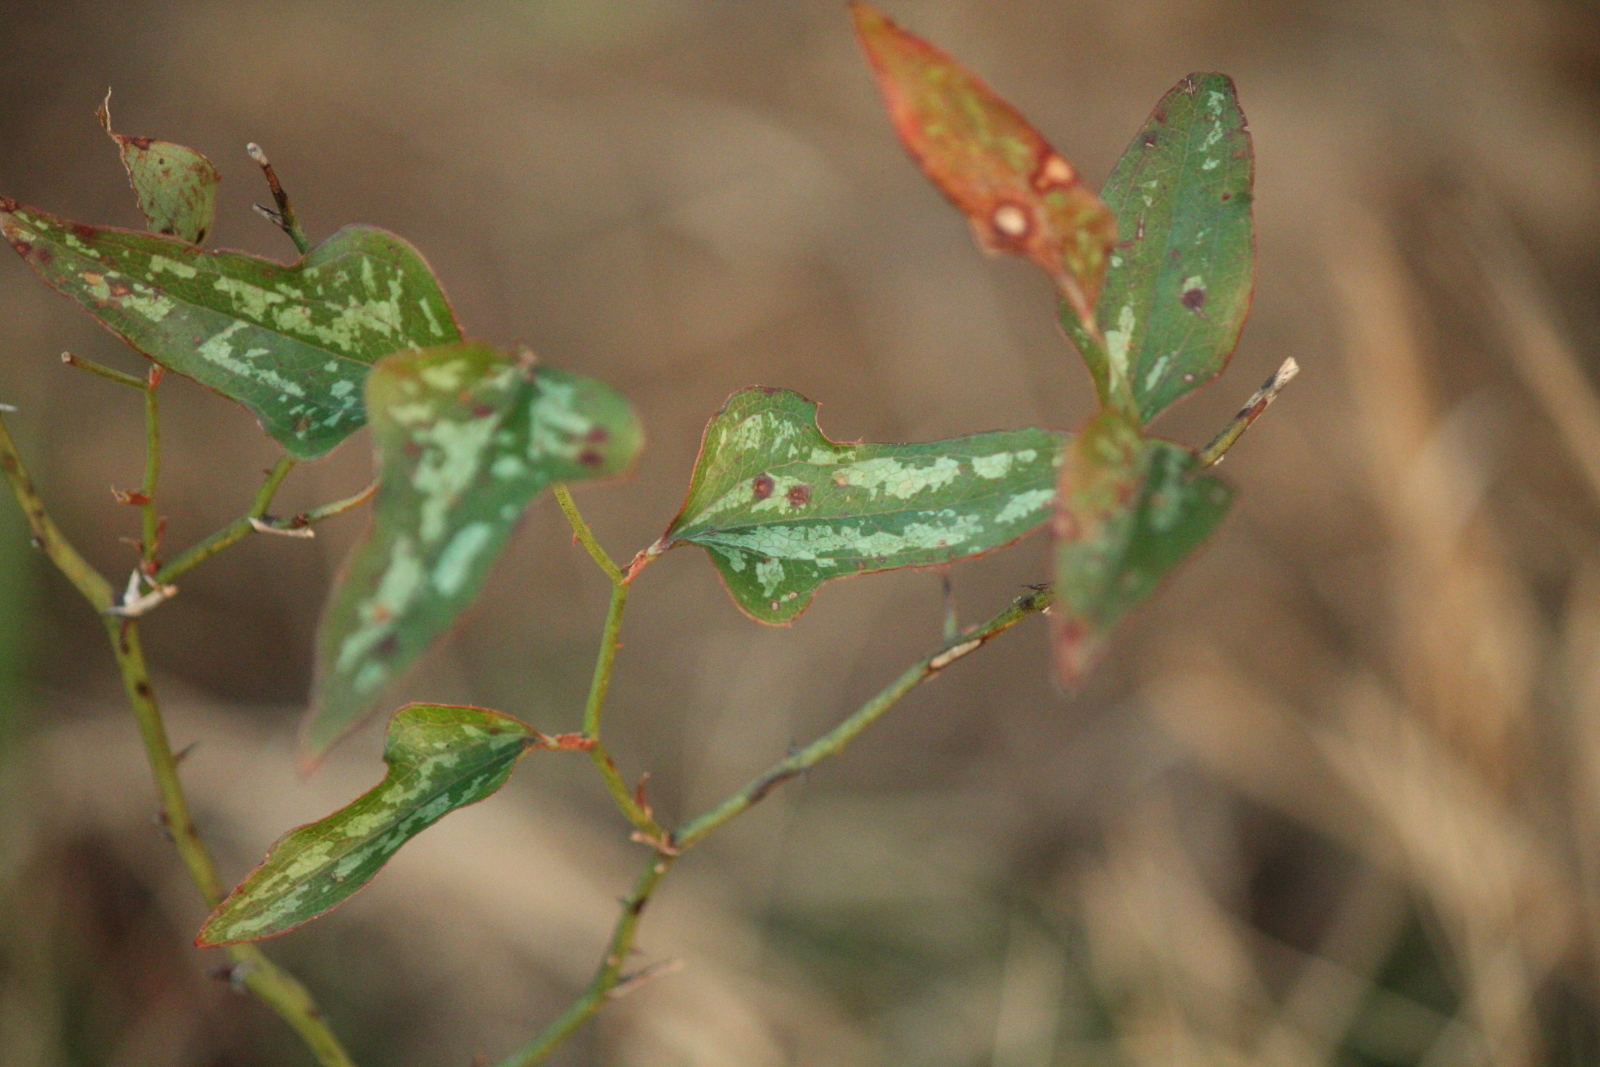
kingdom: Plantae
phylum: Tracheophyta
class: Liliopsida
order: Liliales
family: Smilacaceae
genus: Smilax
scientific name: Smilax bona-nox
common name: Catbrier
